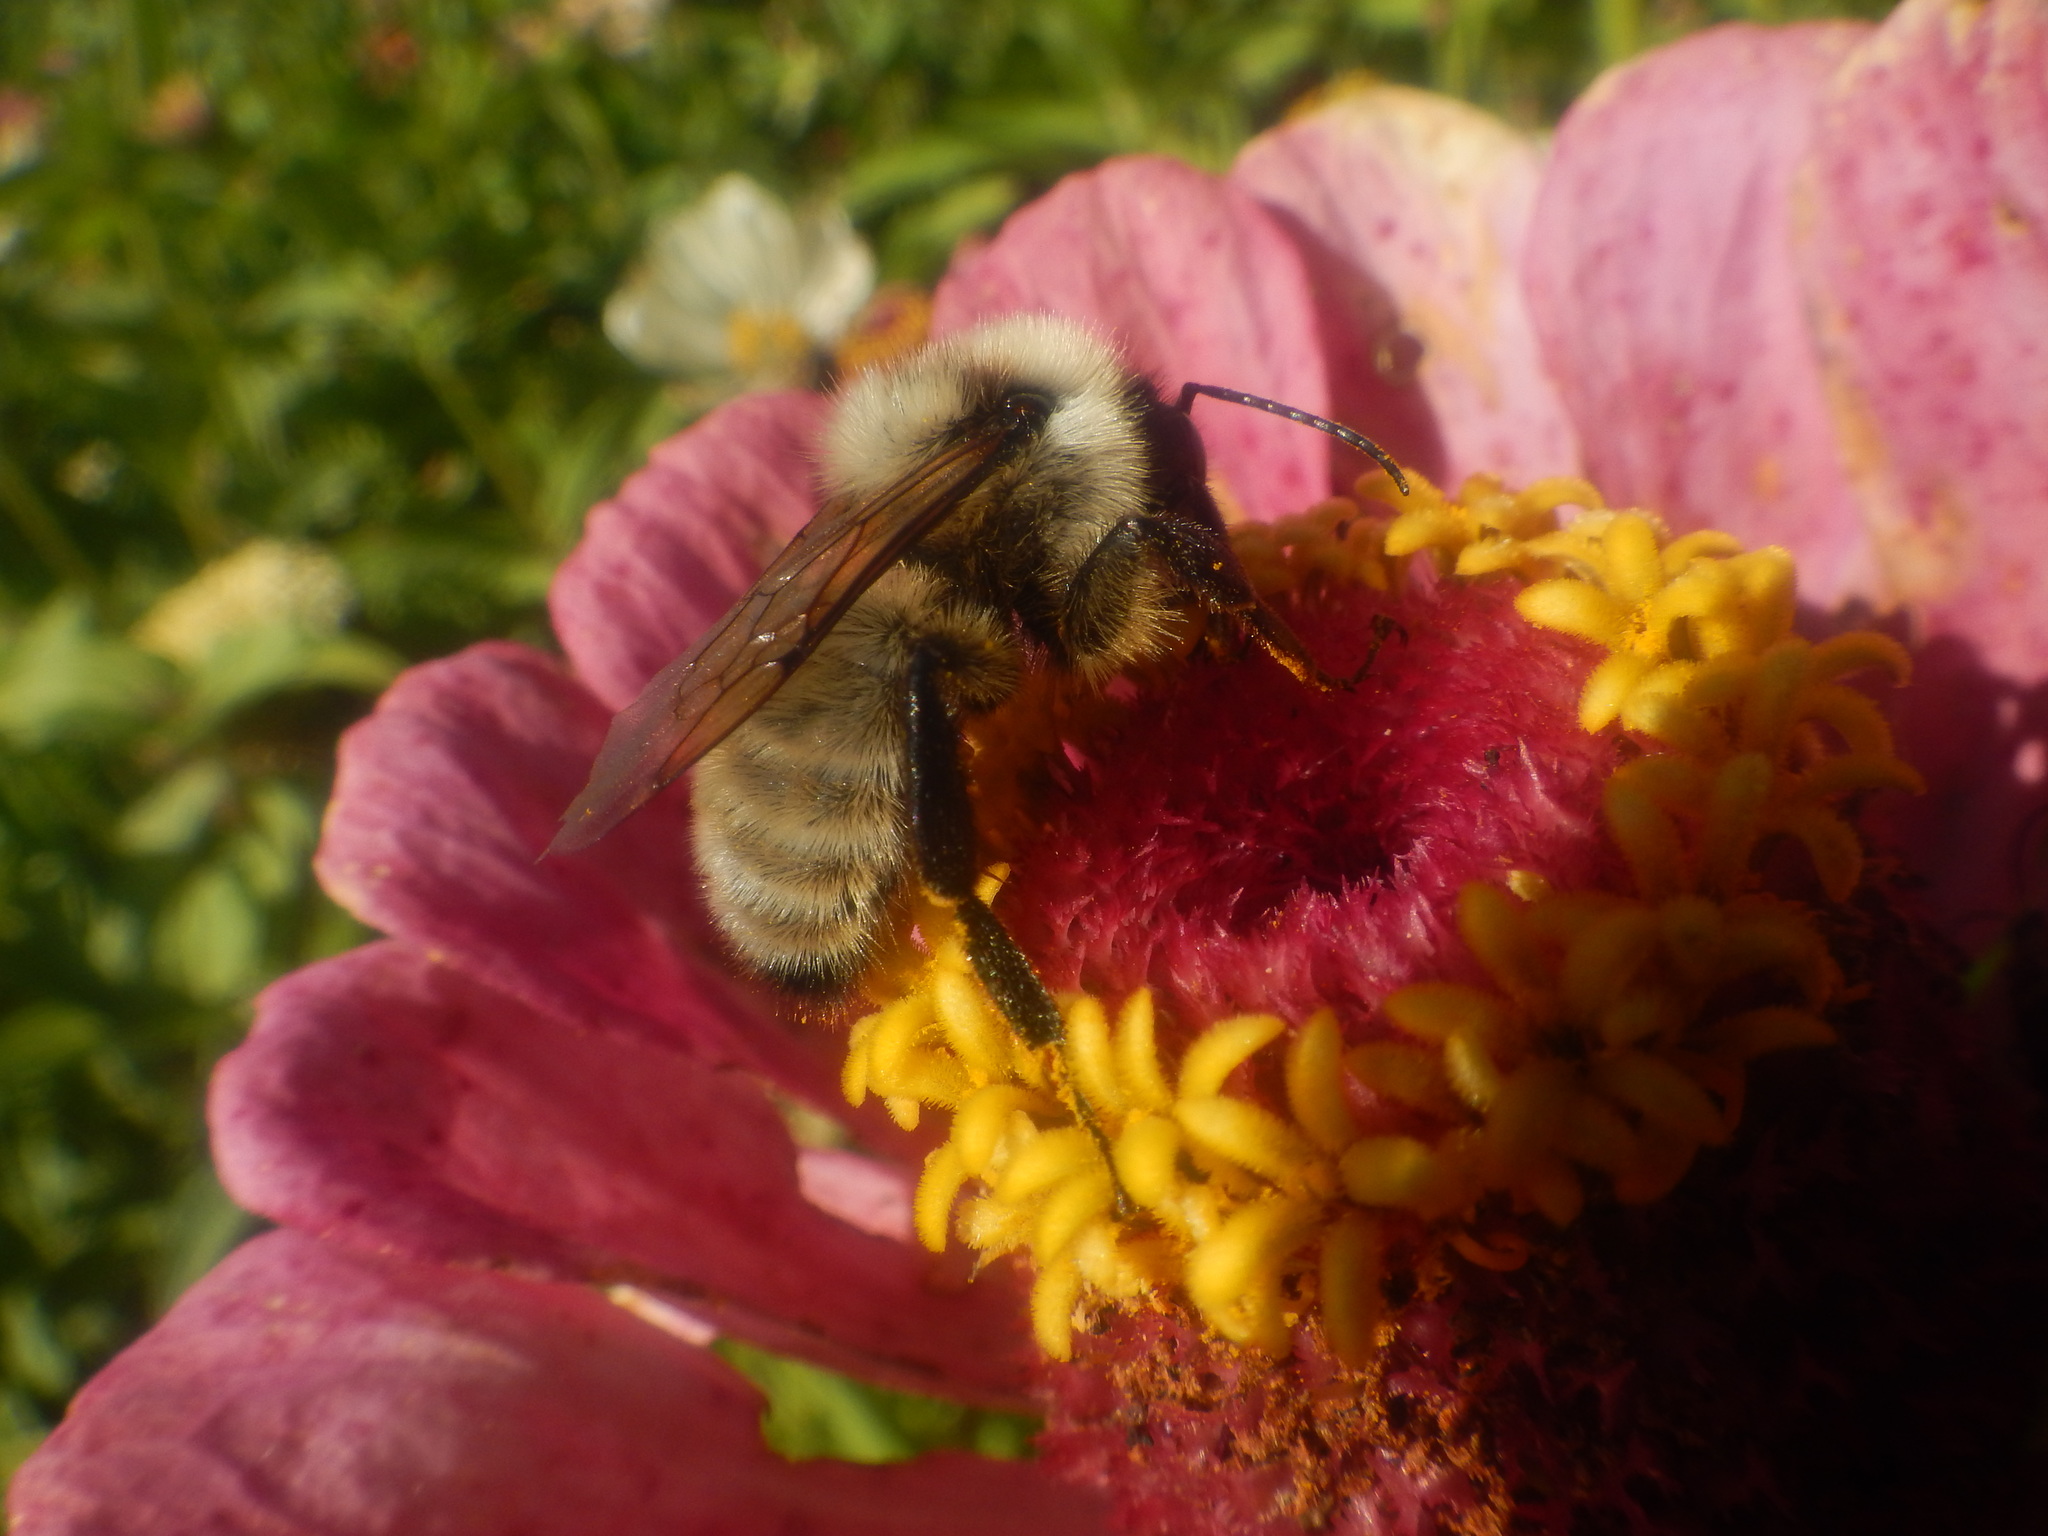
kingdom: Animalia
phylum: Arthropoda
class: Insecta
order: Hymenoptera
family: Apidae
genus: Bombus
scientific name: Bombus fervidus
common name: Yellow bumble bee
